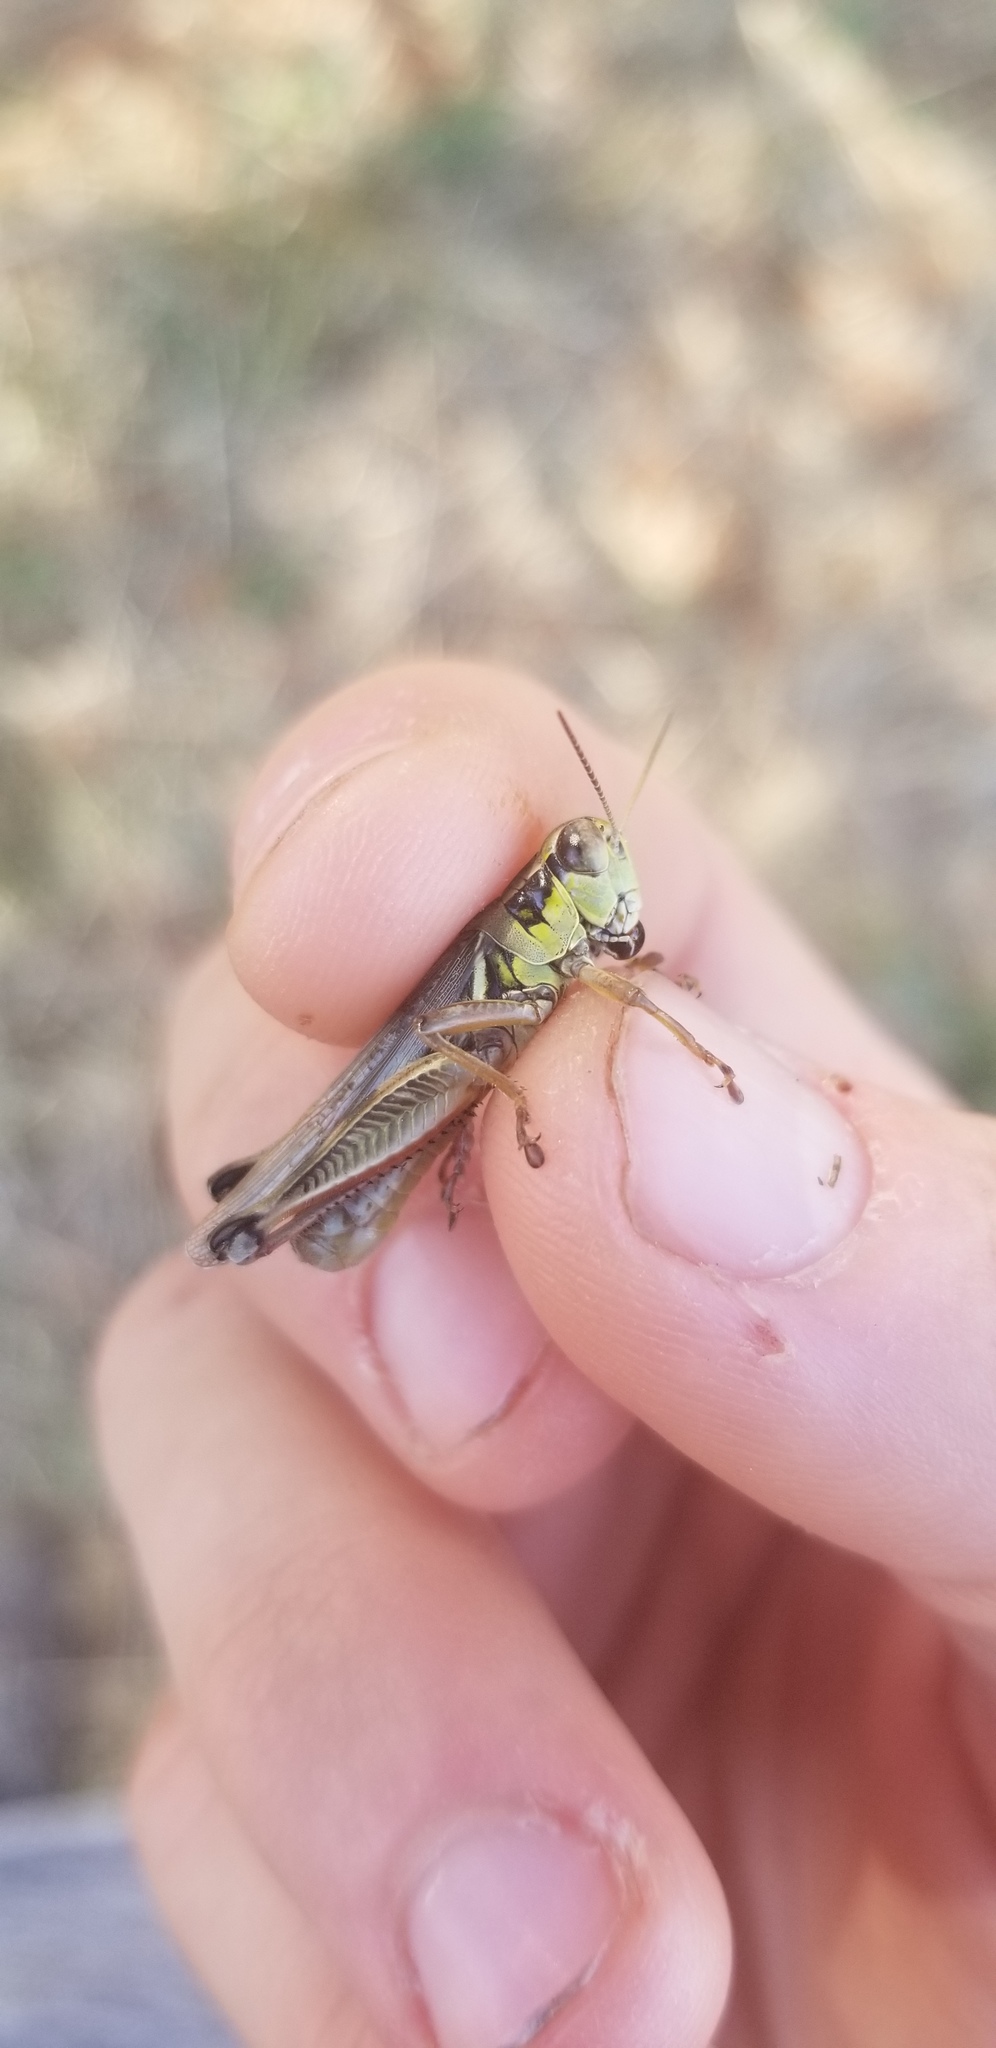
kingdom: Animalia
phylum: Arthropoda
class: Insecta
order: Orthoptera
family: Acrididae
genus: Melanoplus
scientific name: Melanoplus femurrubrum
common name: Red-legged grasshopper
